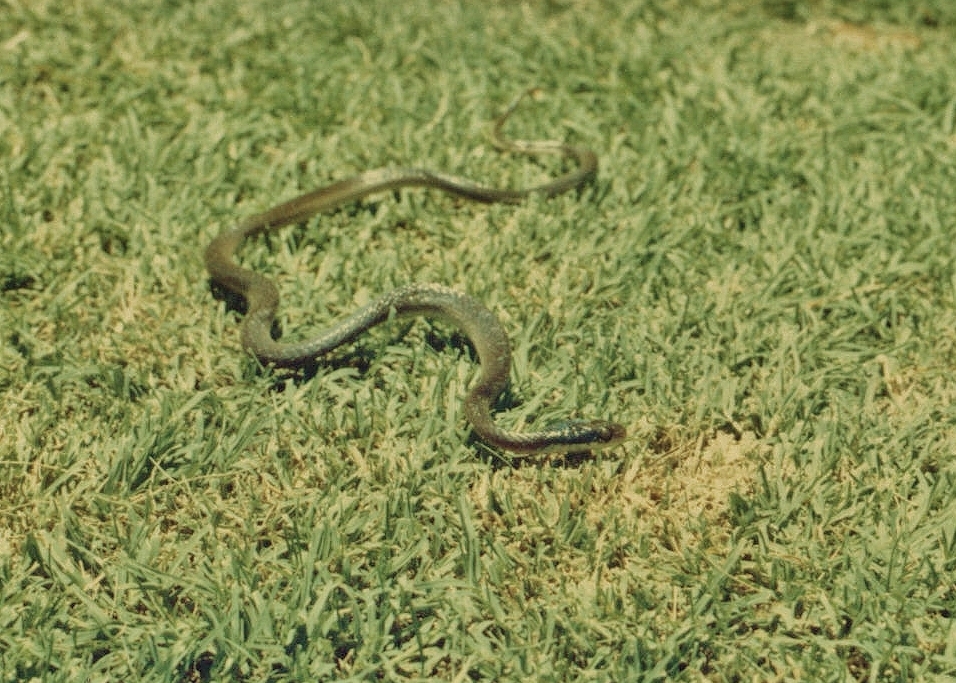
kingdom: Animalia
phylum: Chordata
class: Squamata
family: Colubridae
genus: Crotaphopeltis
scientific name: Crotaphopeltis hotamboeia
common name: Red-lipped snake
